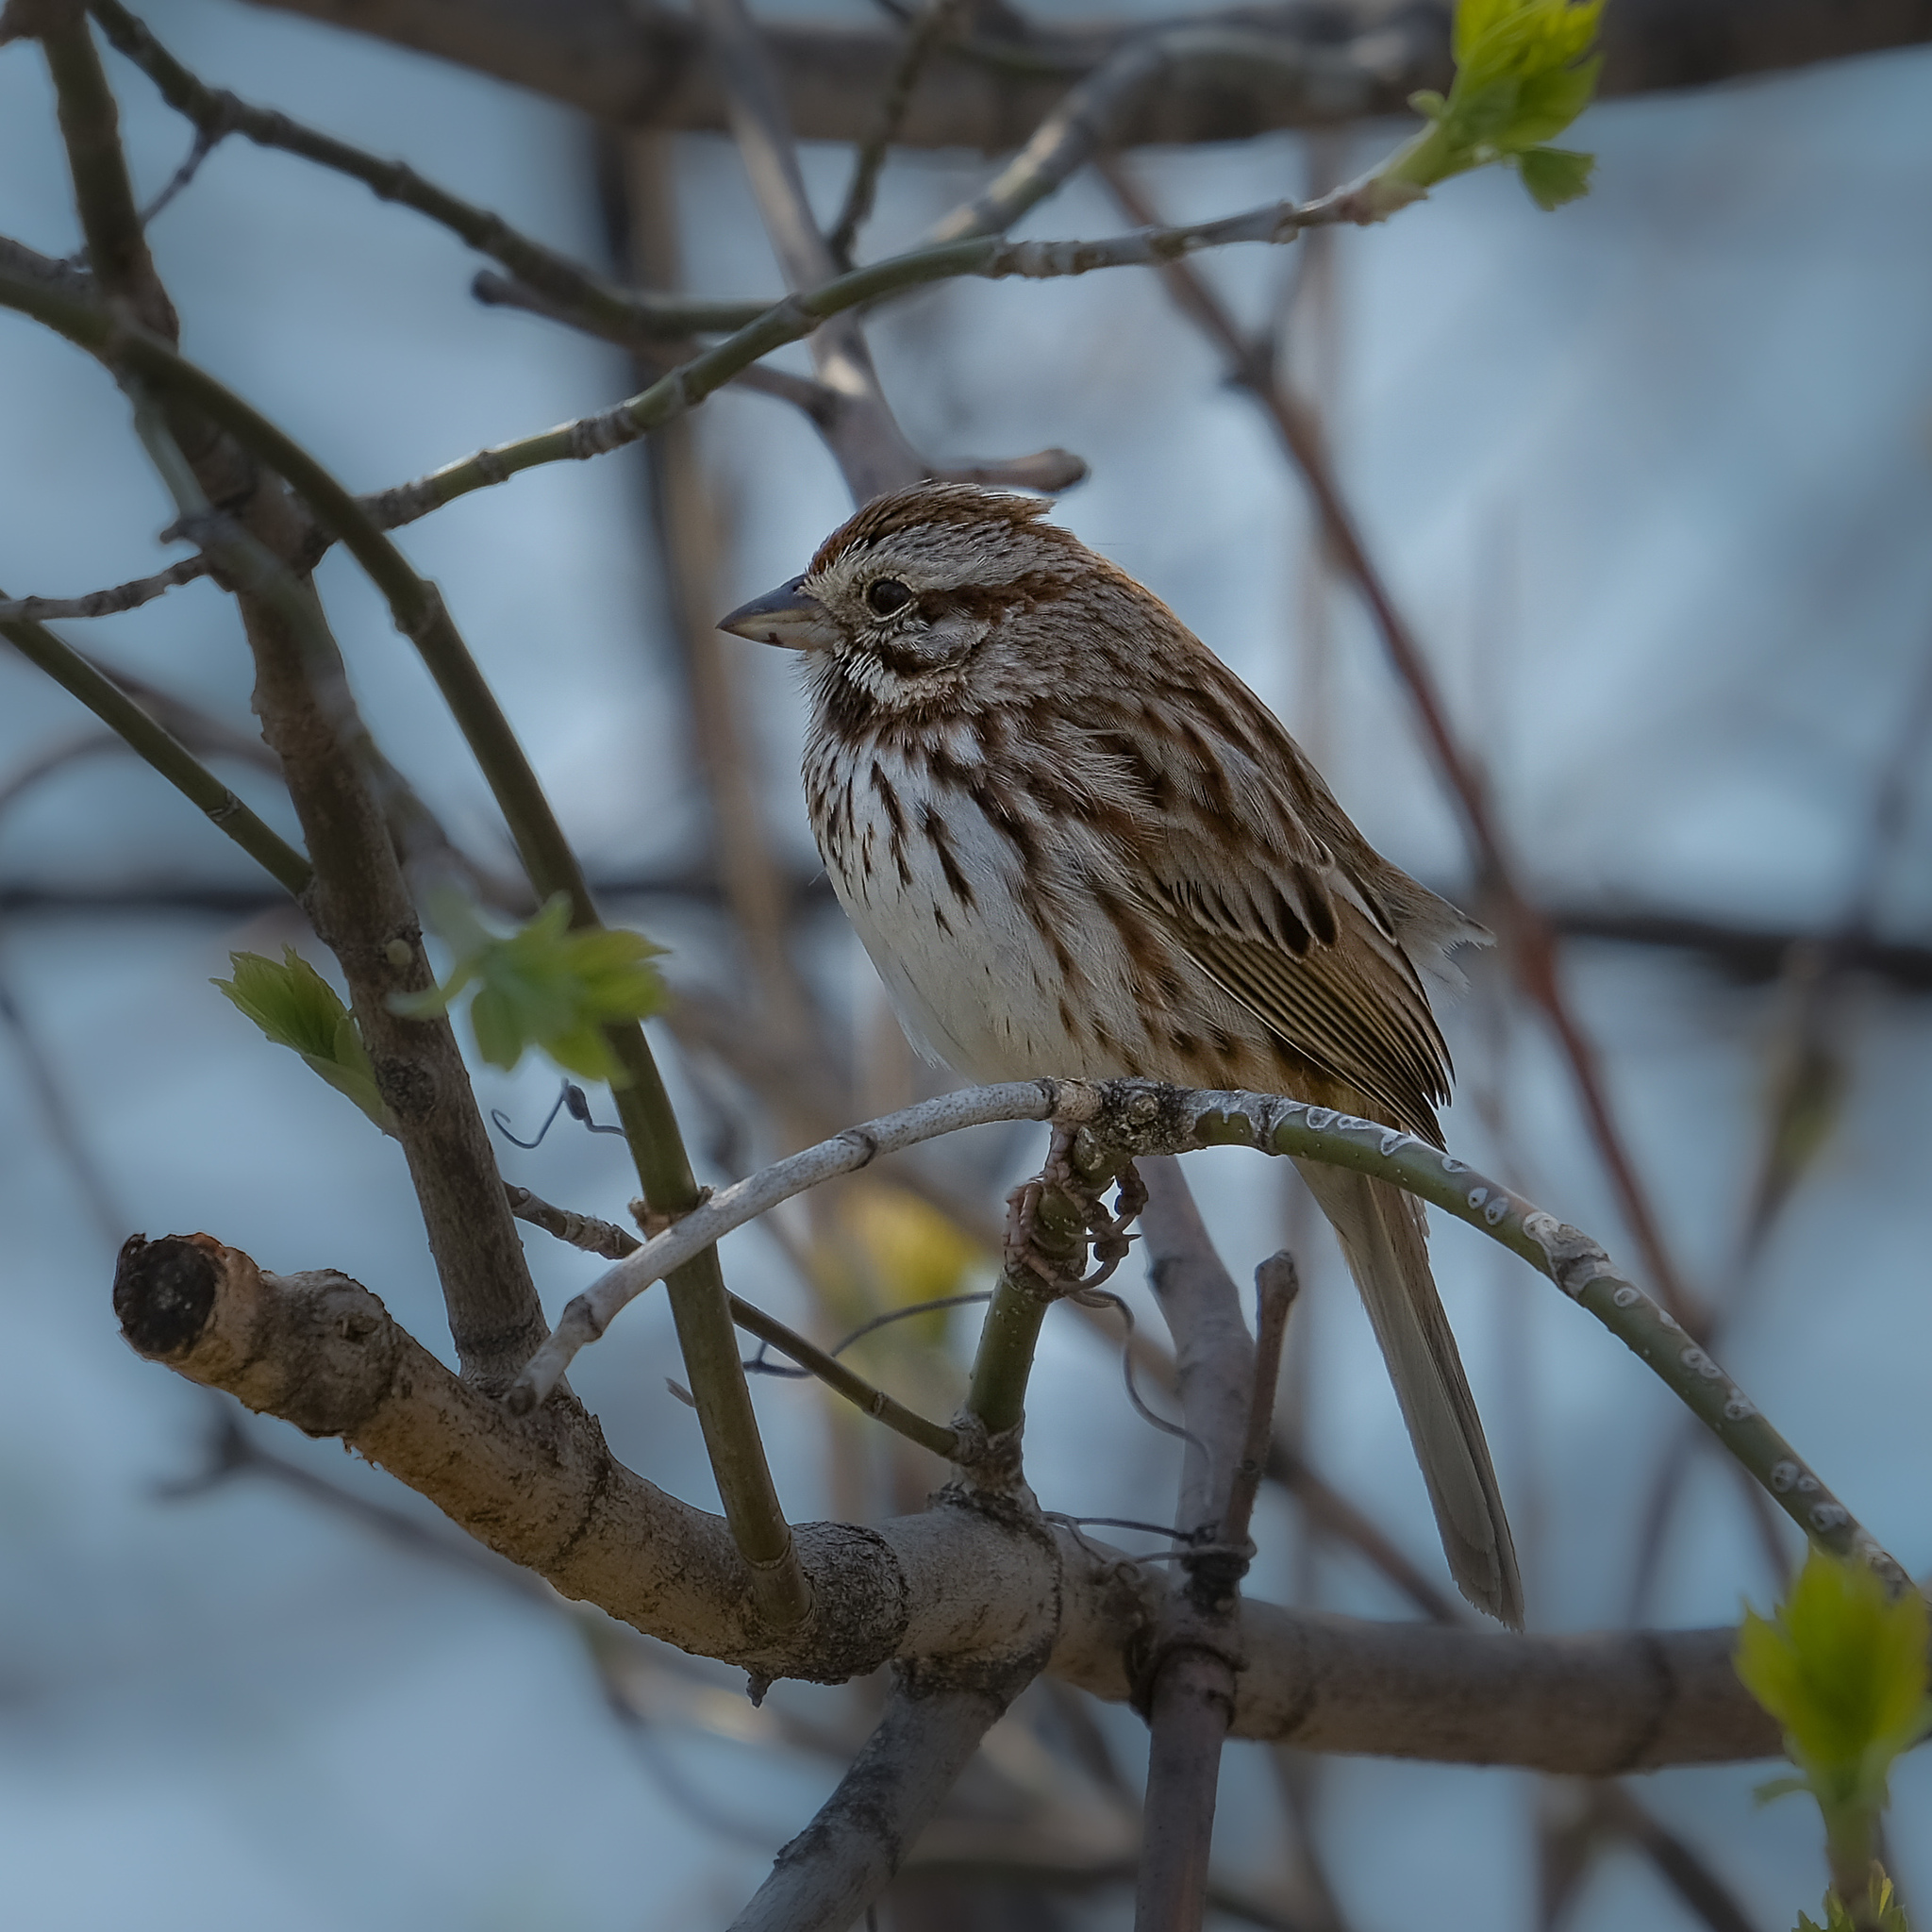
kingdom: Animalia
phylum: Chordata
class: Aves
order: Passeriformes
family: Passerellidae
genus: Melospiza
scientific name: Melospiza melodia
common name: Song sparrow
